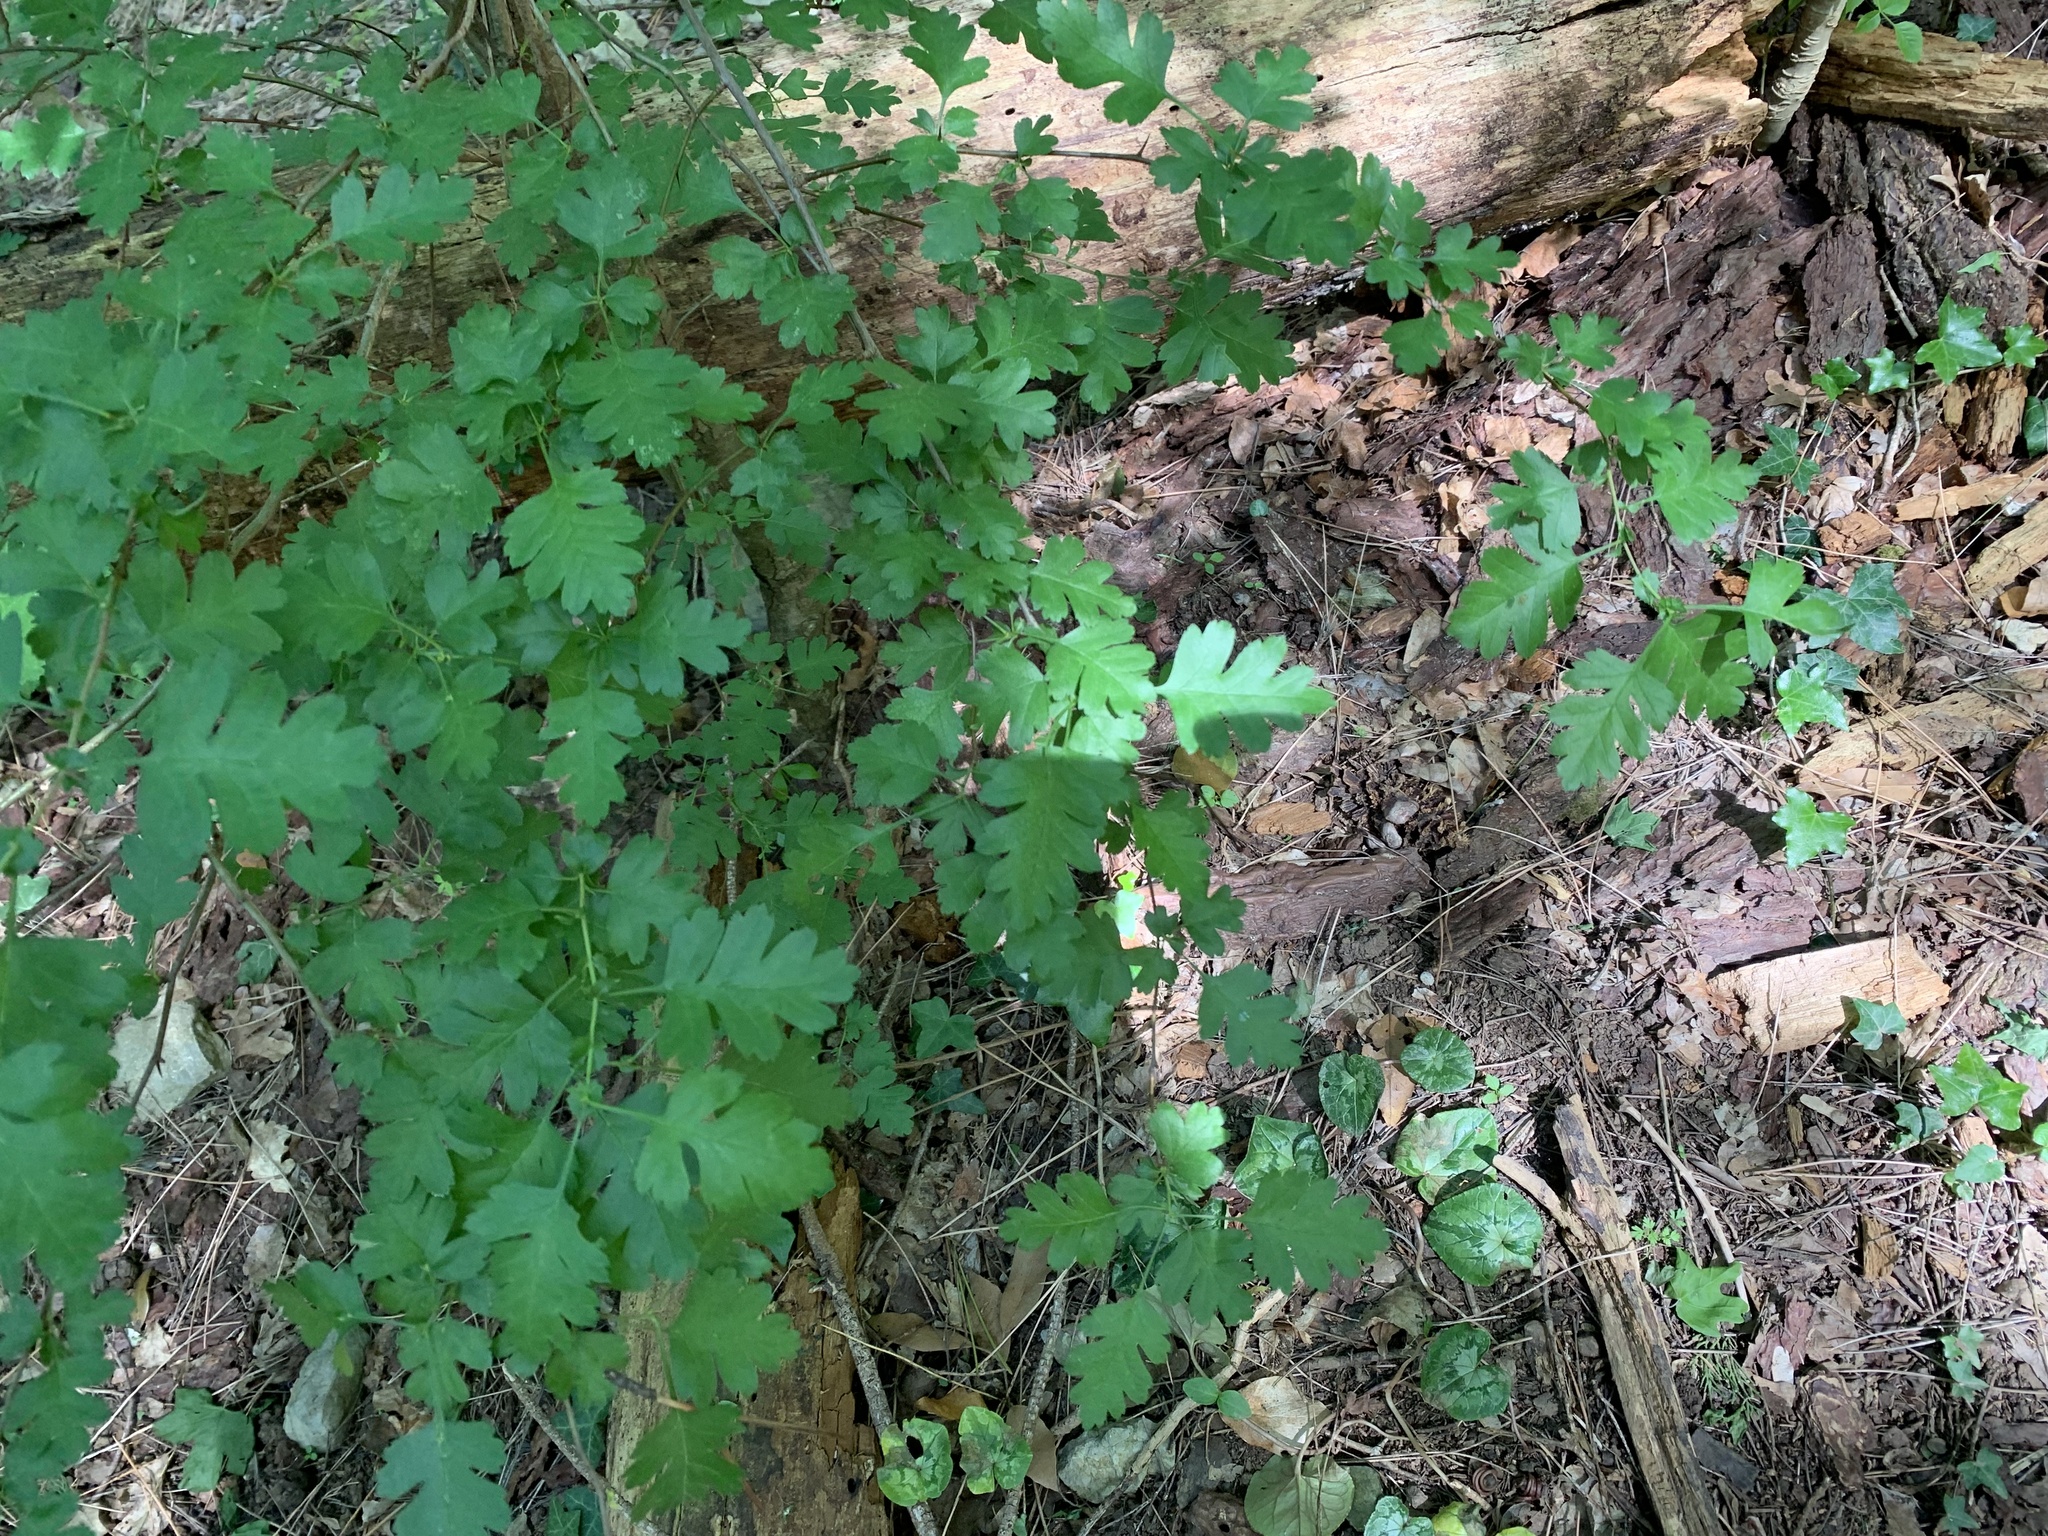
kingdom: Plantae
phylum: Tracheophyta
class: Magnoliopsida
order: Rosales
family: Rosaceae
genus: Crataegus
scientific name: Crataegus monogyna
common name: Hawthorn
